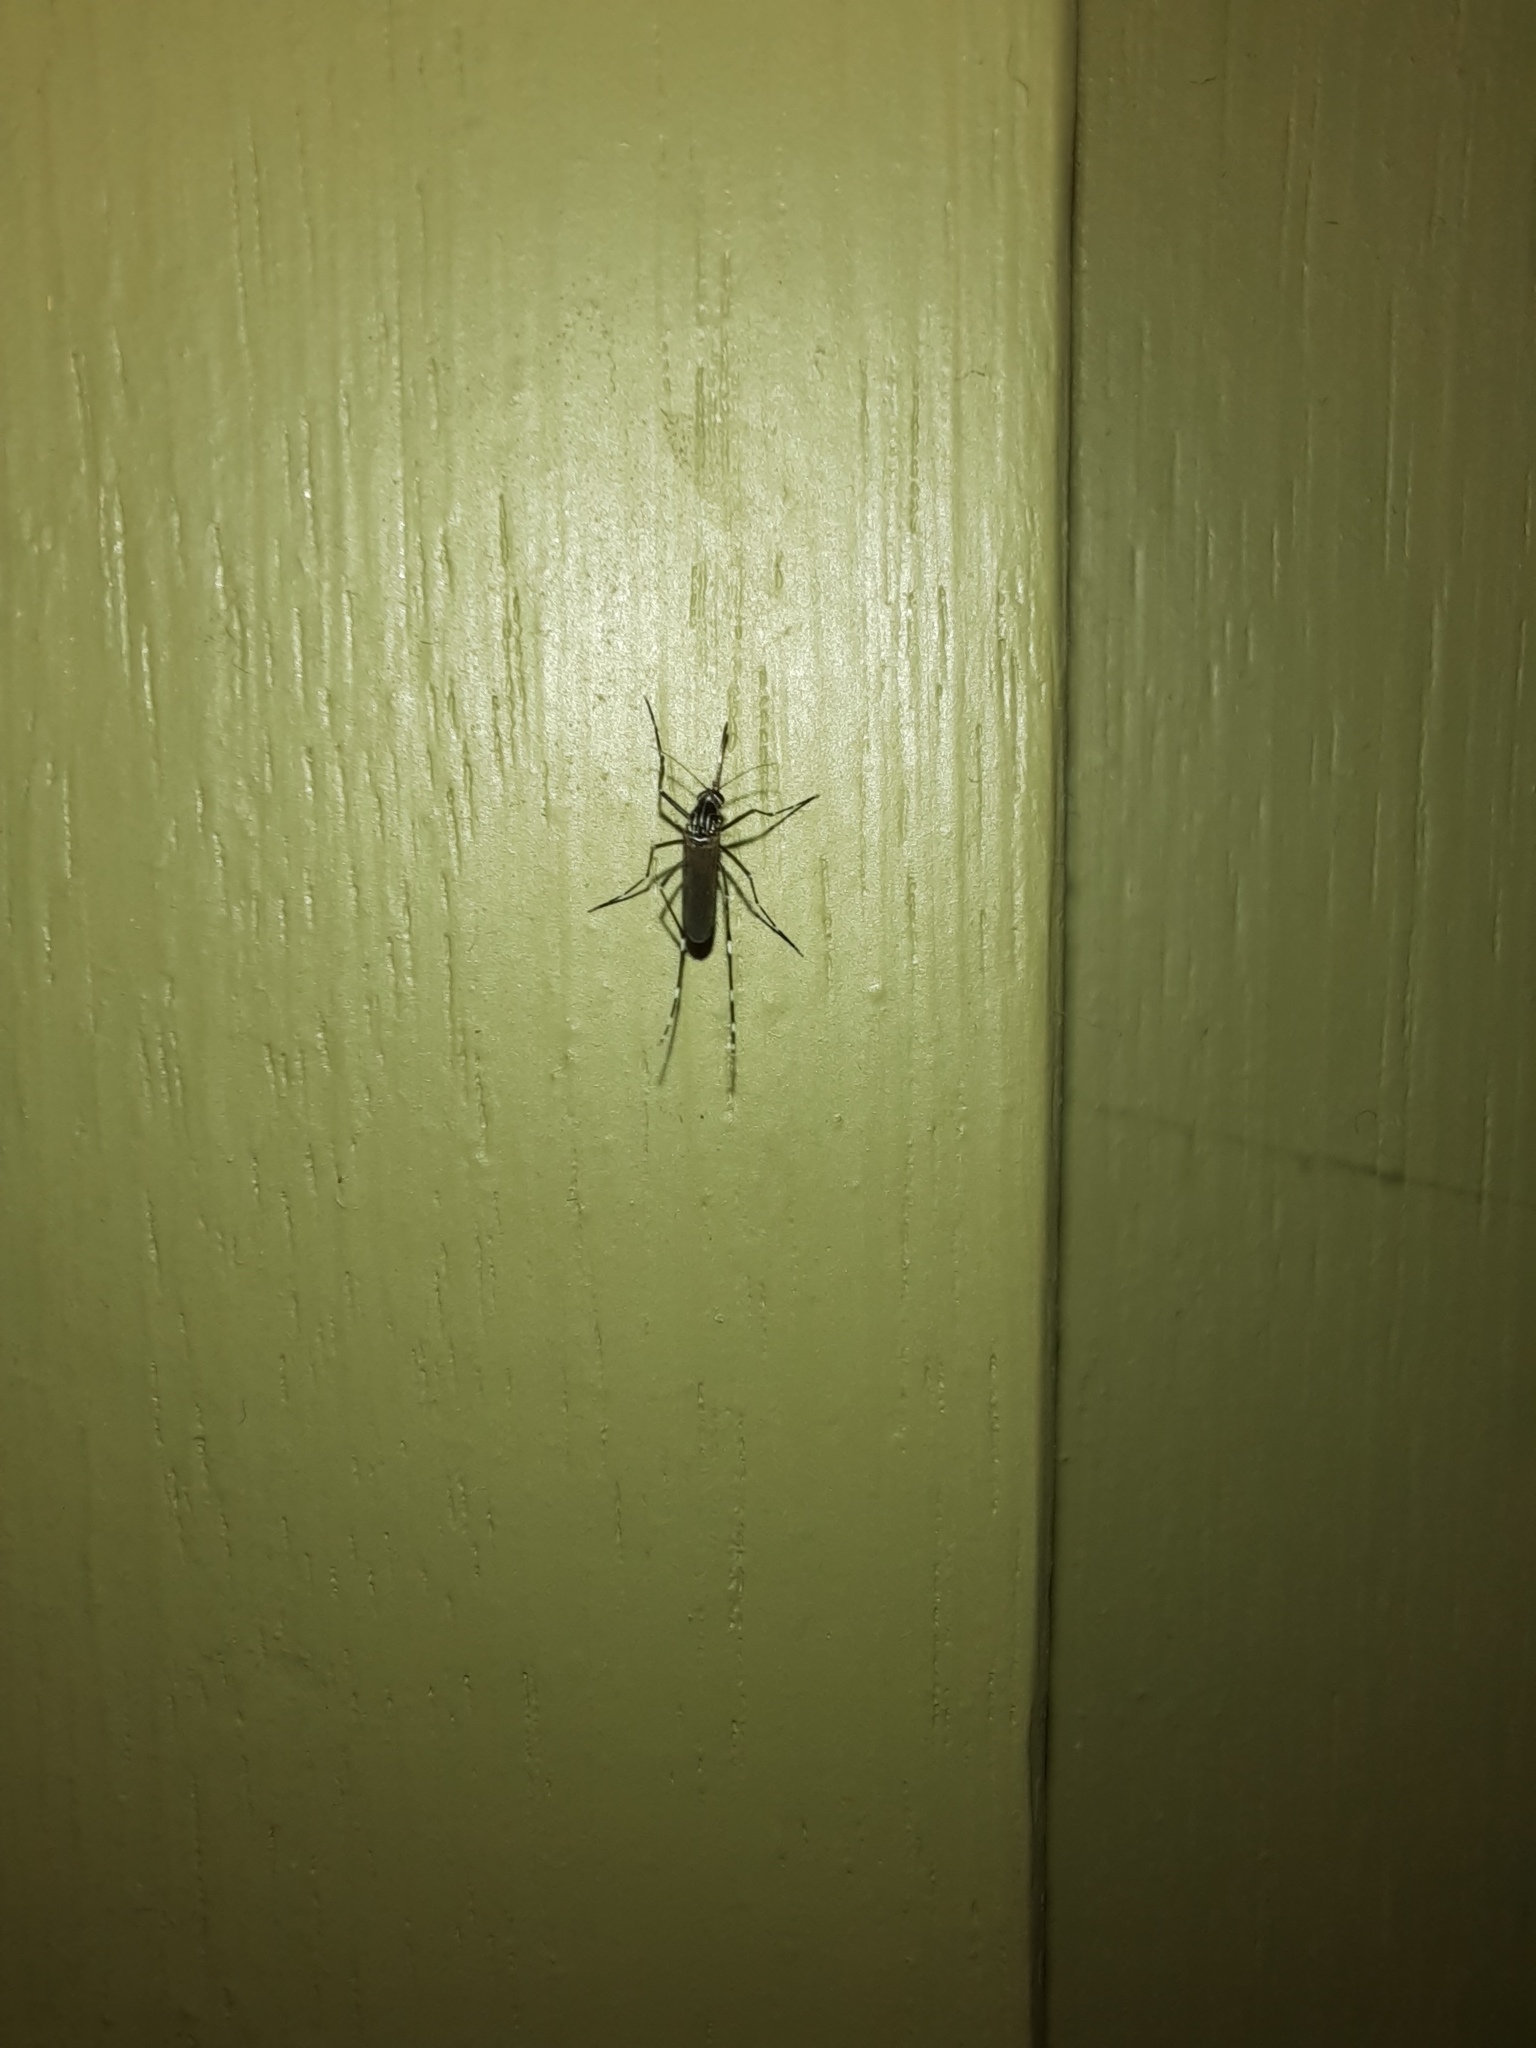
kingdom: Animalia
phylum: Arthropoda
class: Insecta
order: Diptera
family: Culicidae
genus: Aedes
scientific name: Aedes notoscriptus
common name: Australian backyard mosquito
